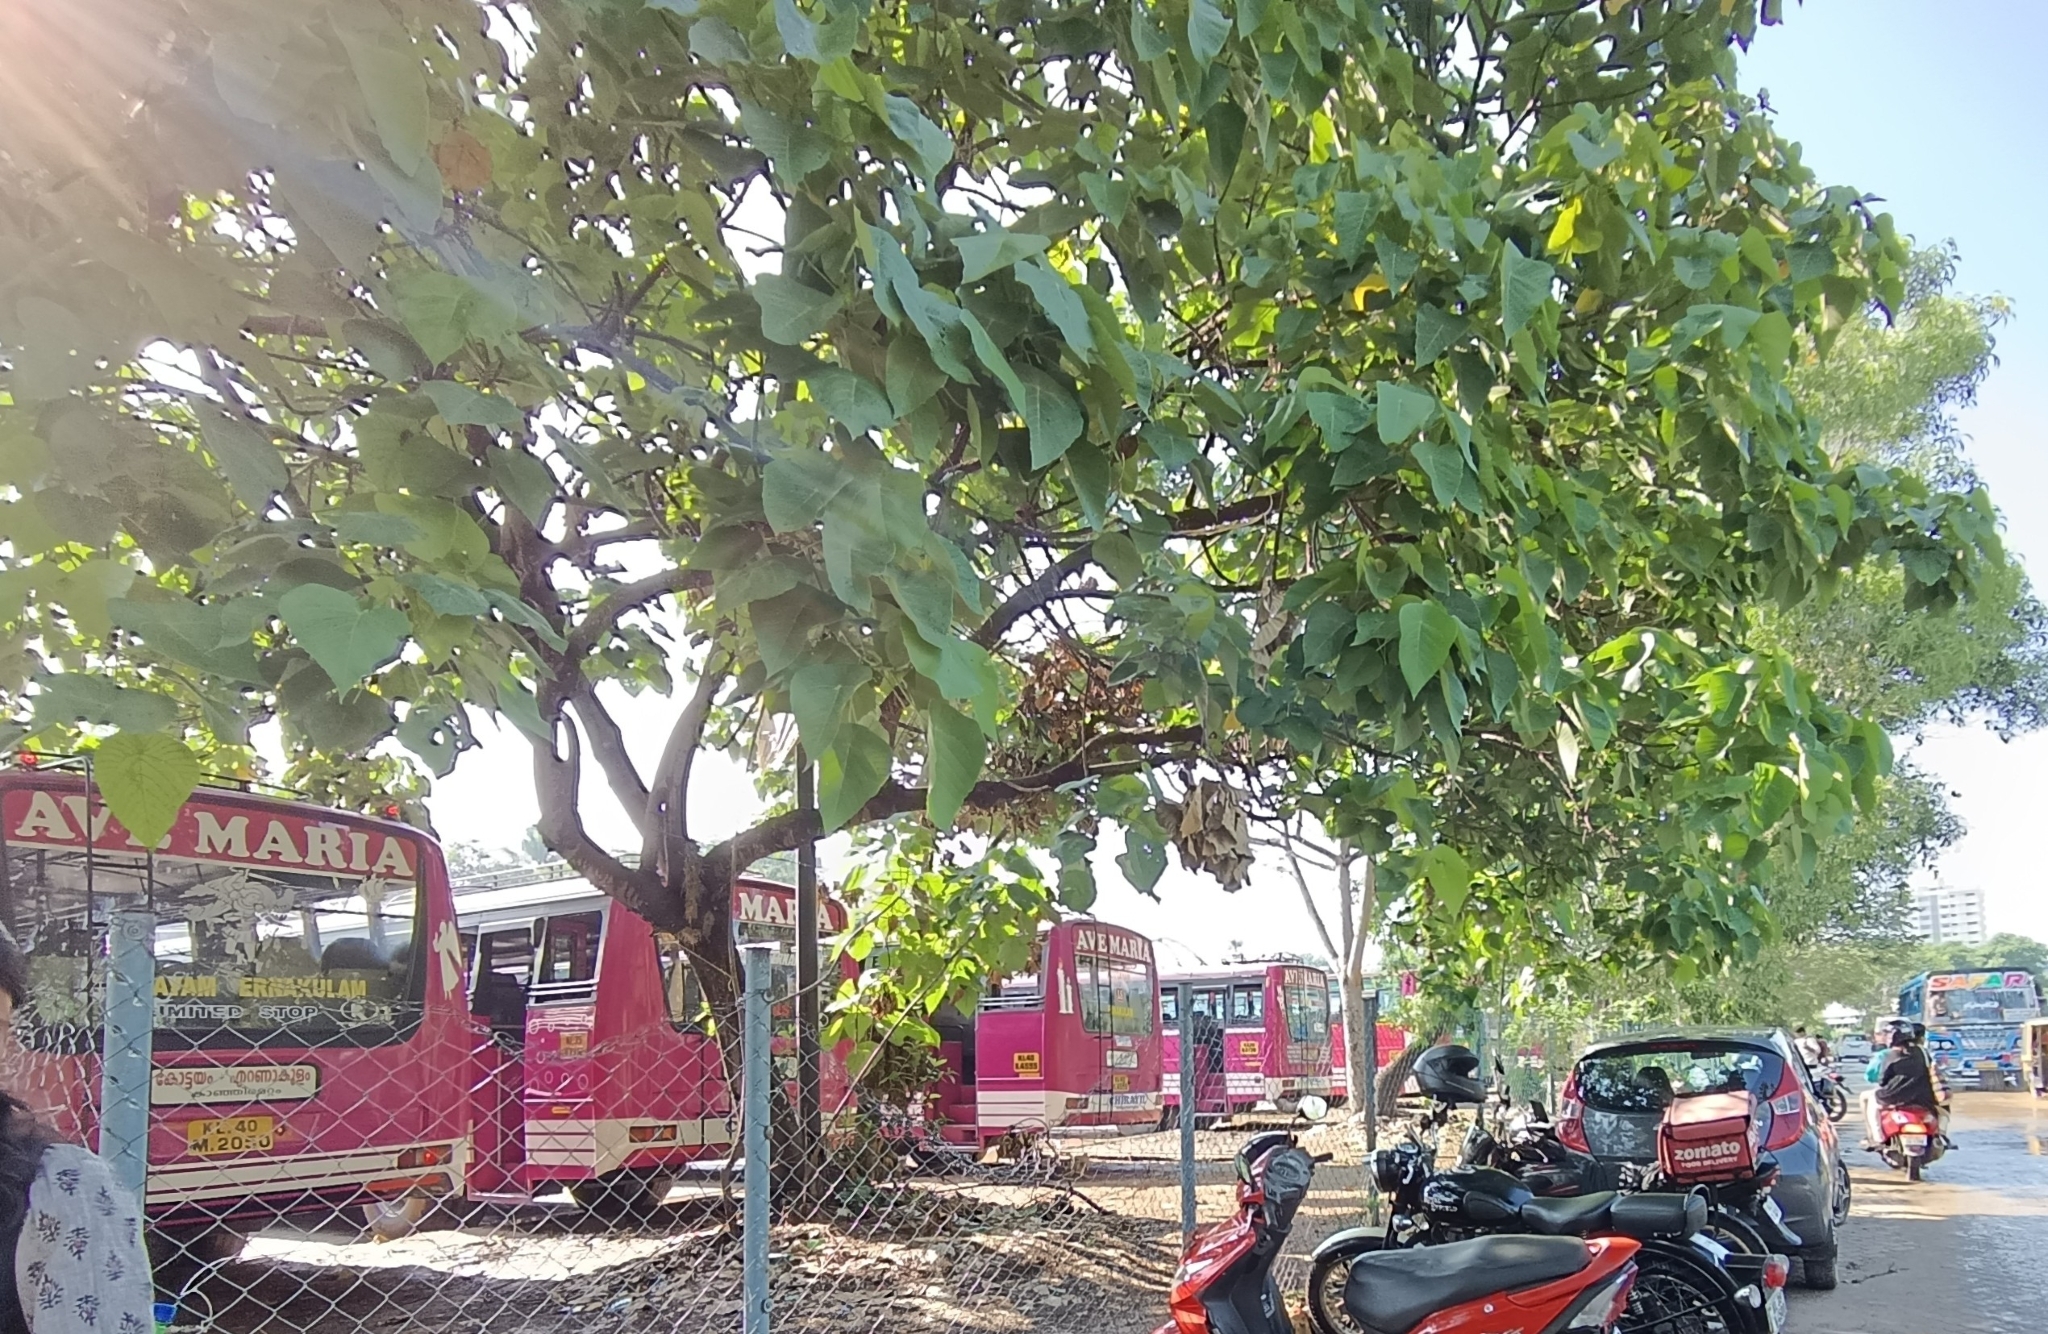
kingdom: Plantae
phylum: Tracheophyta
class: Magnoliopsida
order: Malpighiales
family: Euphorbiaceae
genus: Macaranga
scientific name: Macaranga peltata
